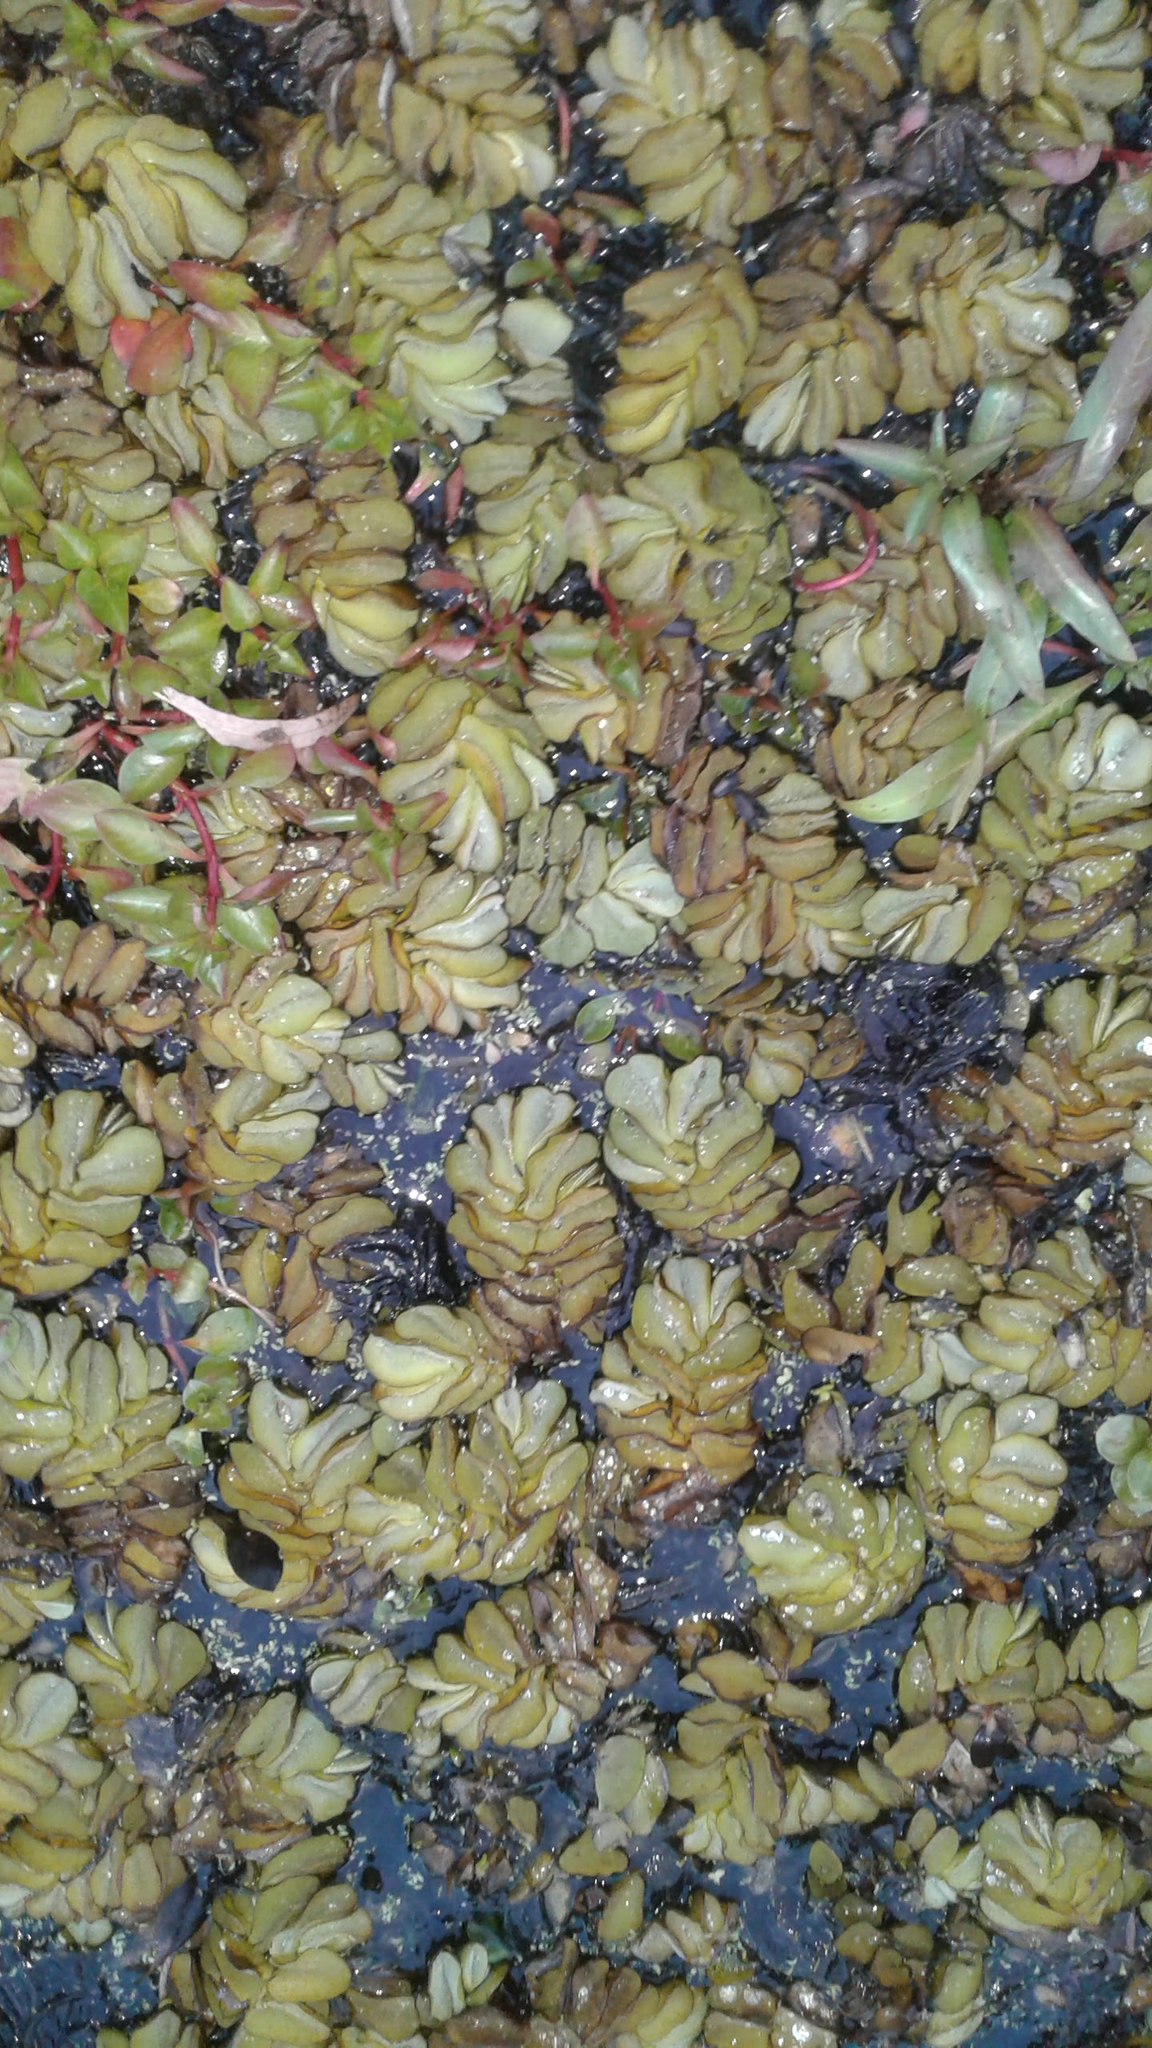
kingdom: Plantae
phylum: Tracheophyta
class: Polypodiopsida
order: Salviniales
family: Salviniaceae
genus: Salvinia
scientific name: Salvinia molesta
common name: Kariba weed
